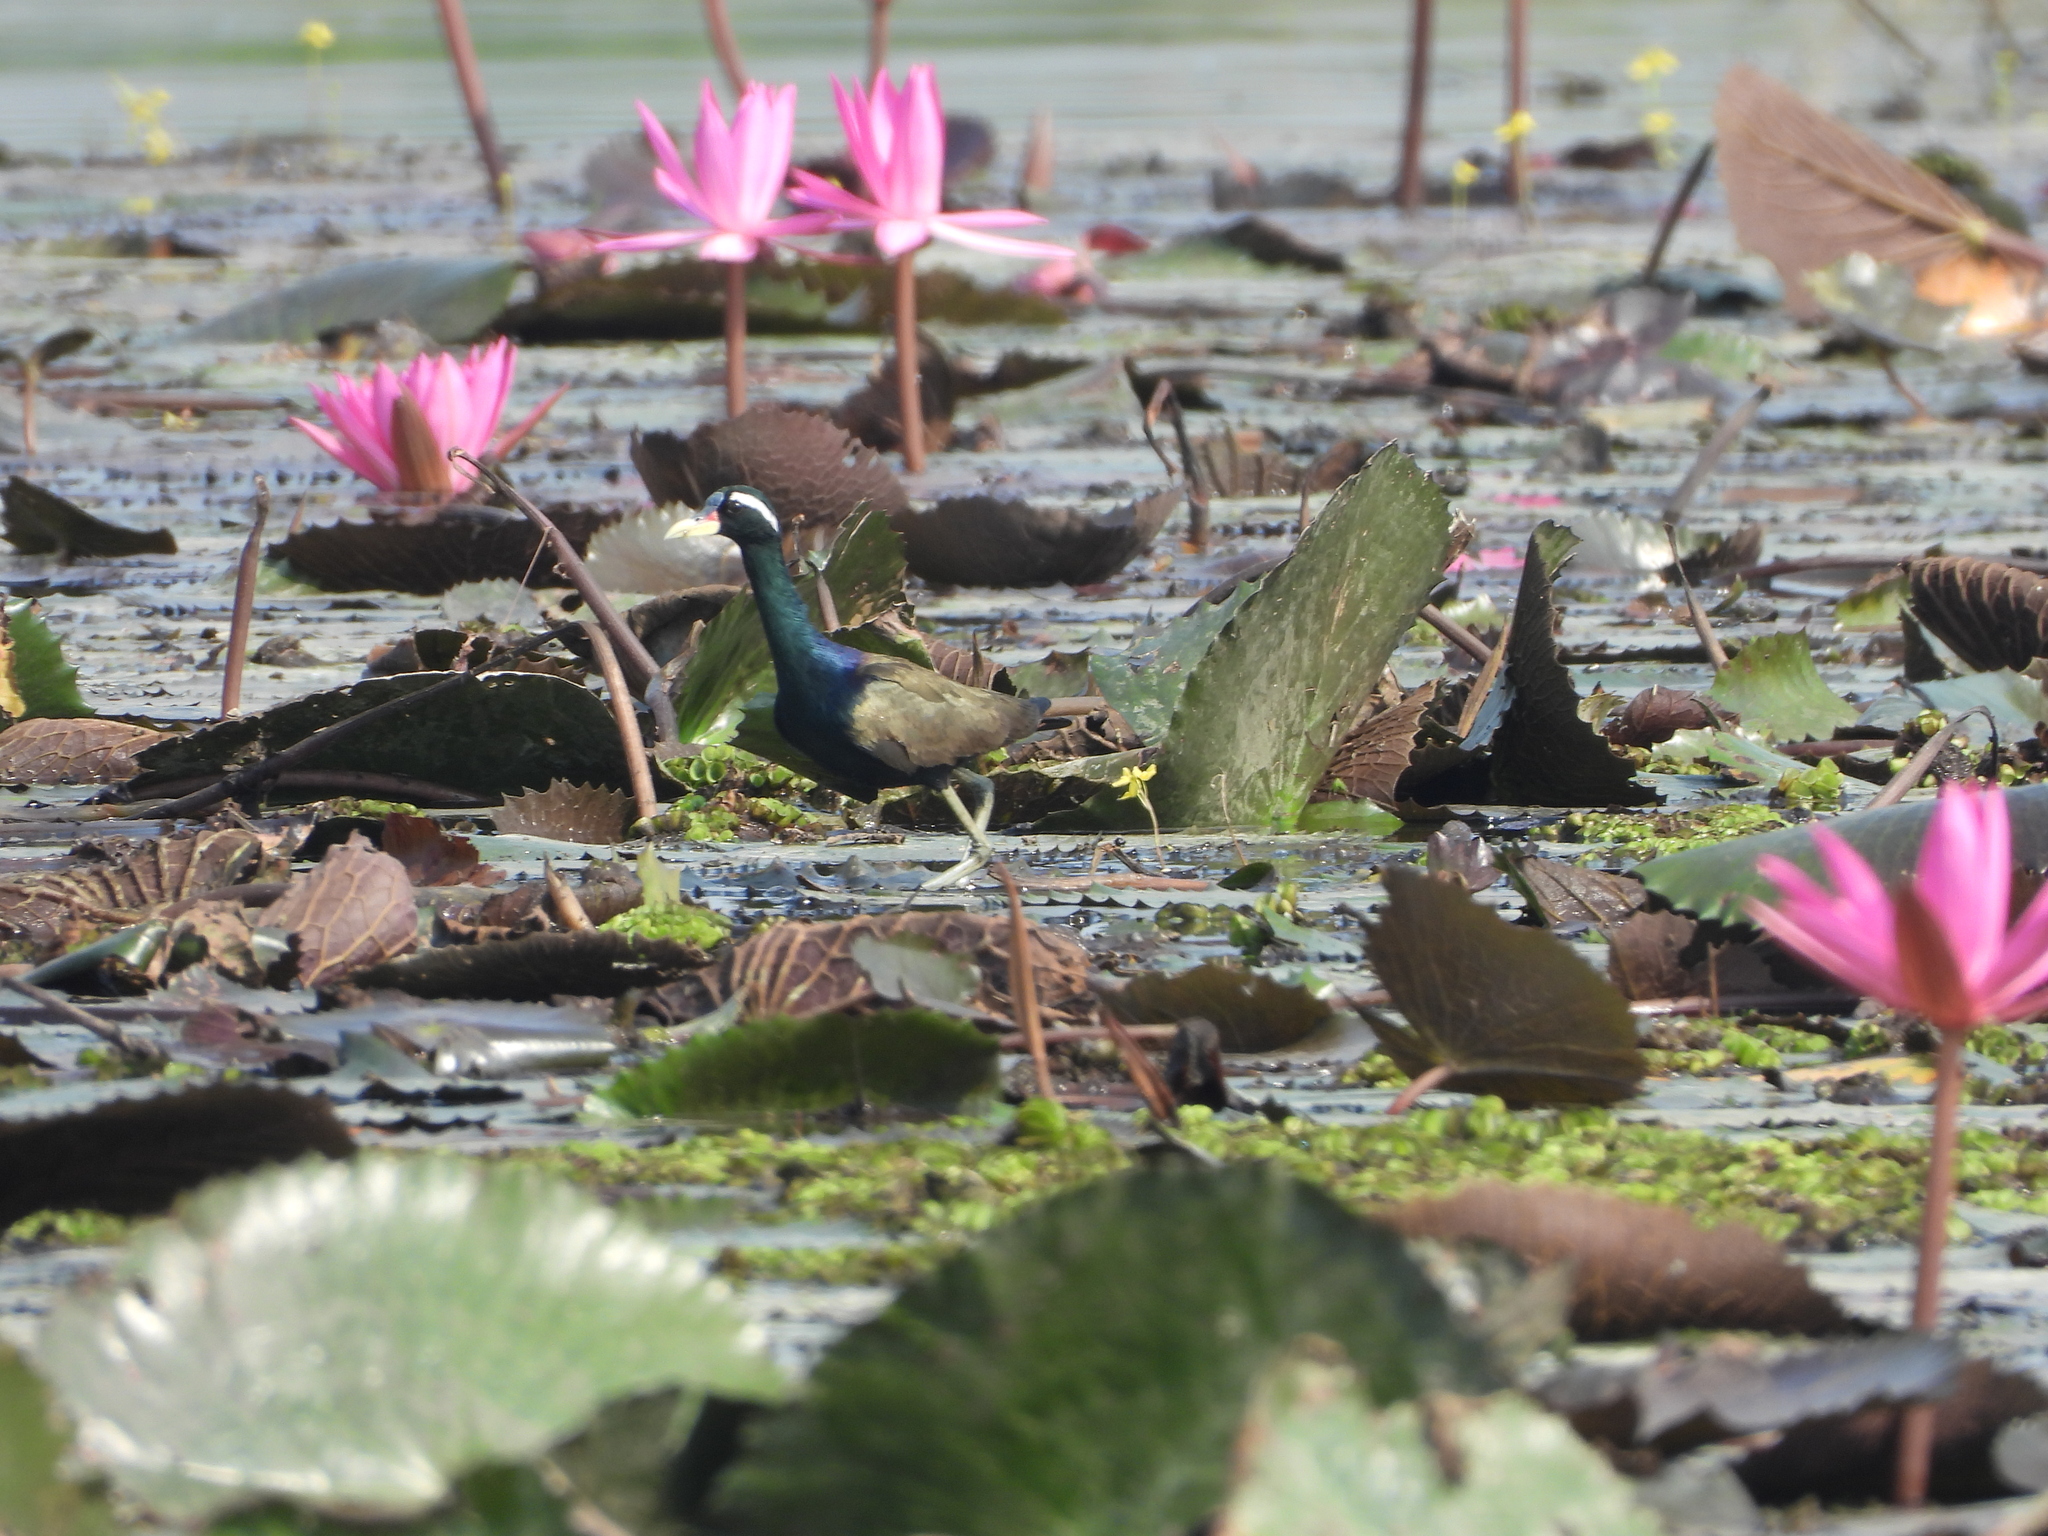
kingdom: Animalia
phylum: Chordata
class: Aves
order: Charadriiformes
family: Jacanidae
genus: Metopidius
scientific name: Metopidius indicus
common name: Bronze-winged jacana
